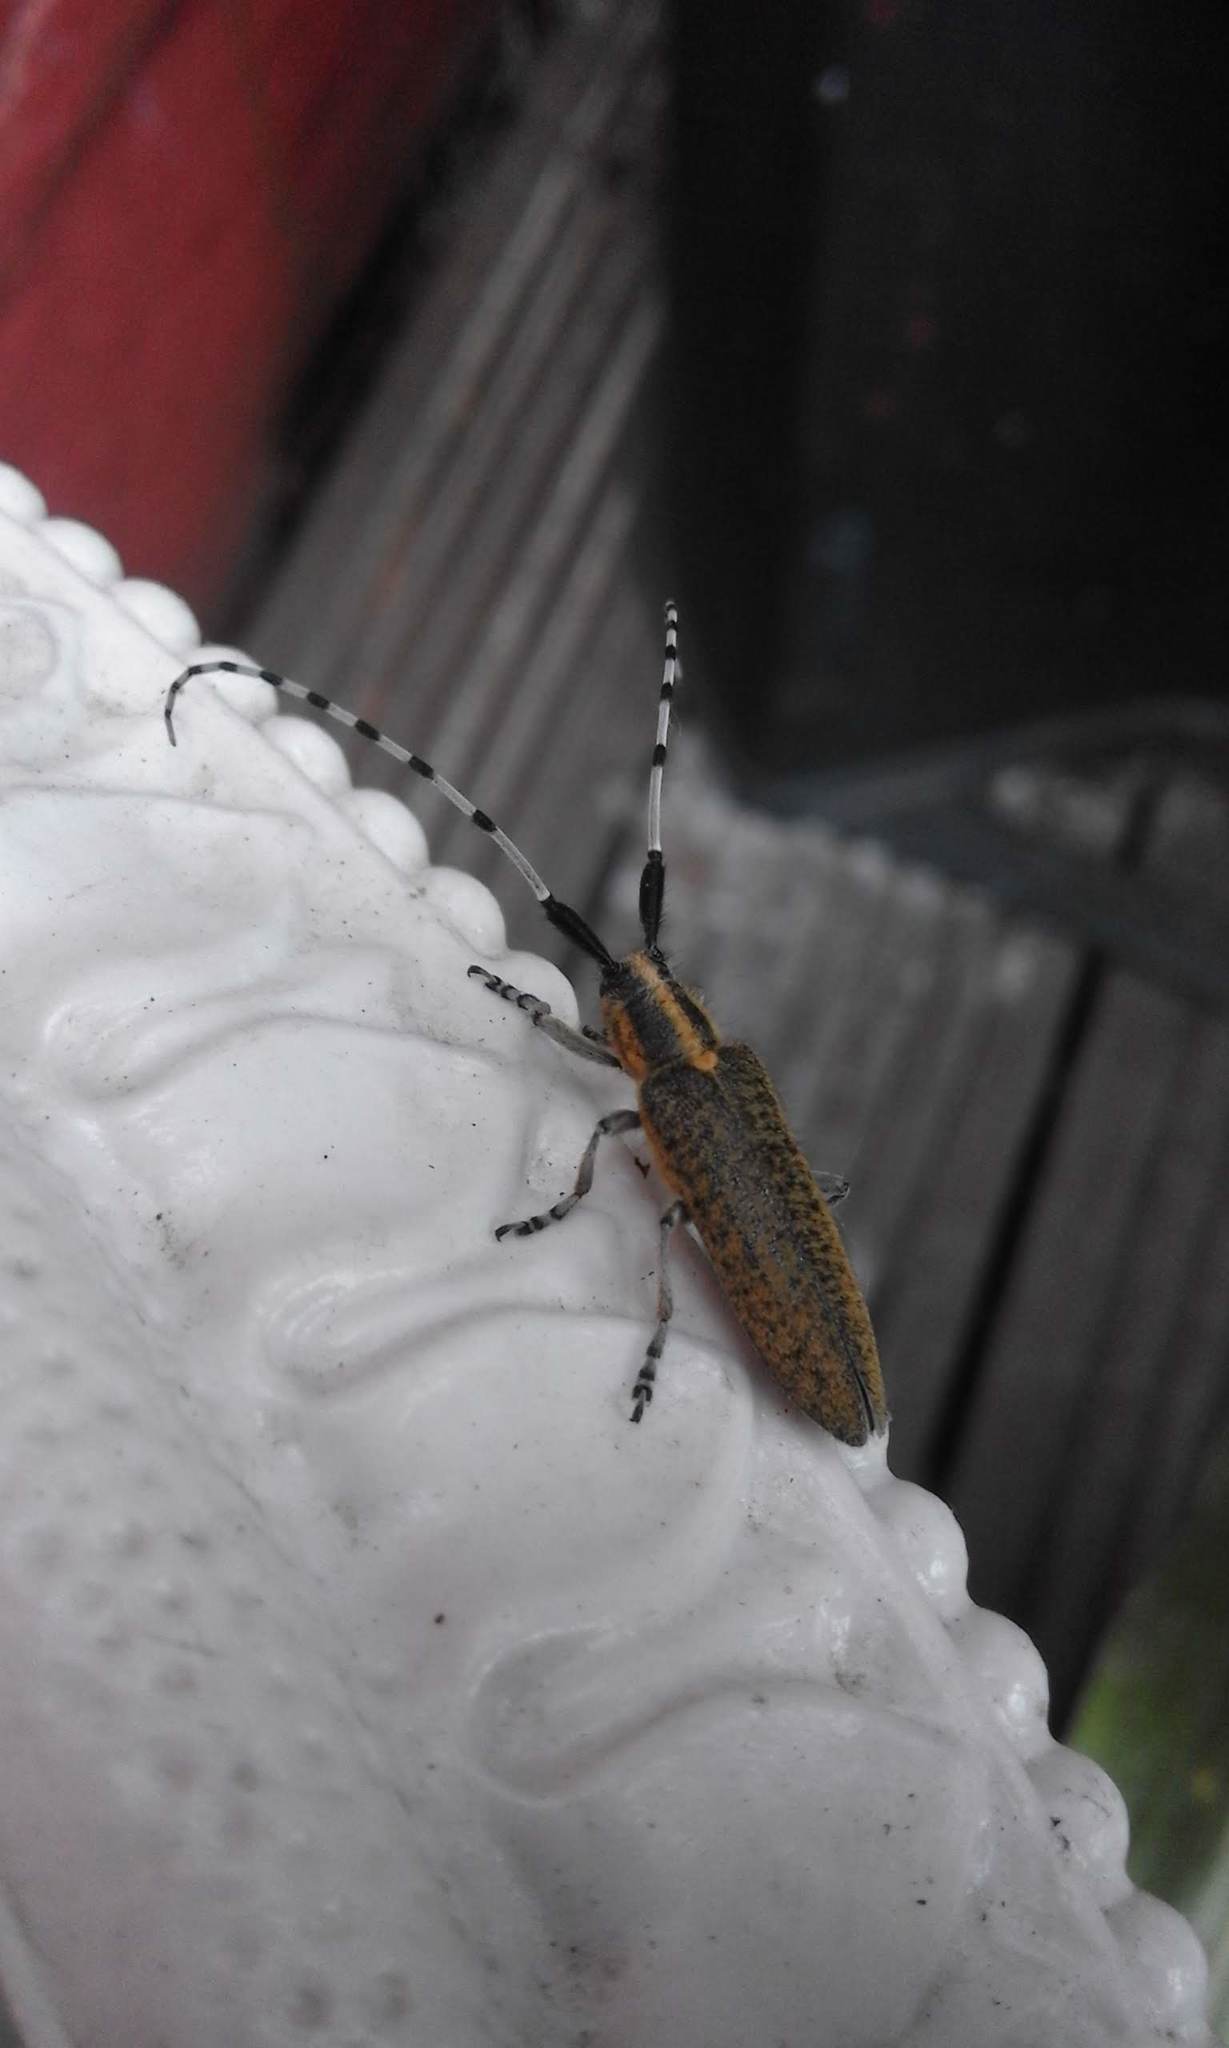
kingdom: Animalia
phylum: Arthropoda
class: Insecta
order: Coleoptera
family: Cerambycidae
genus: Agapanthia
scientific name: Agapanthia villosoviridescens
